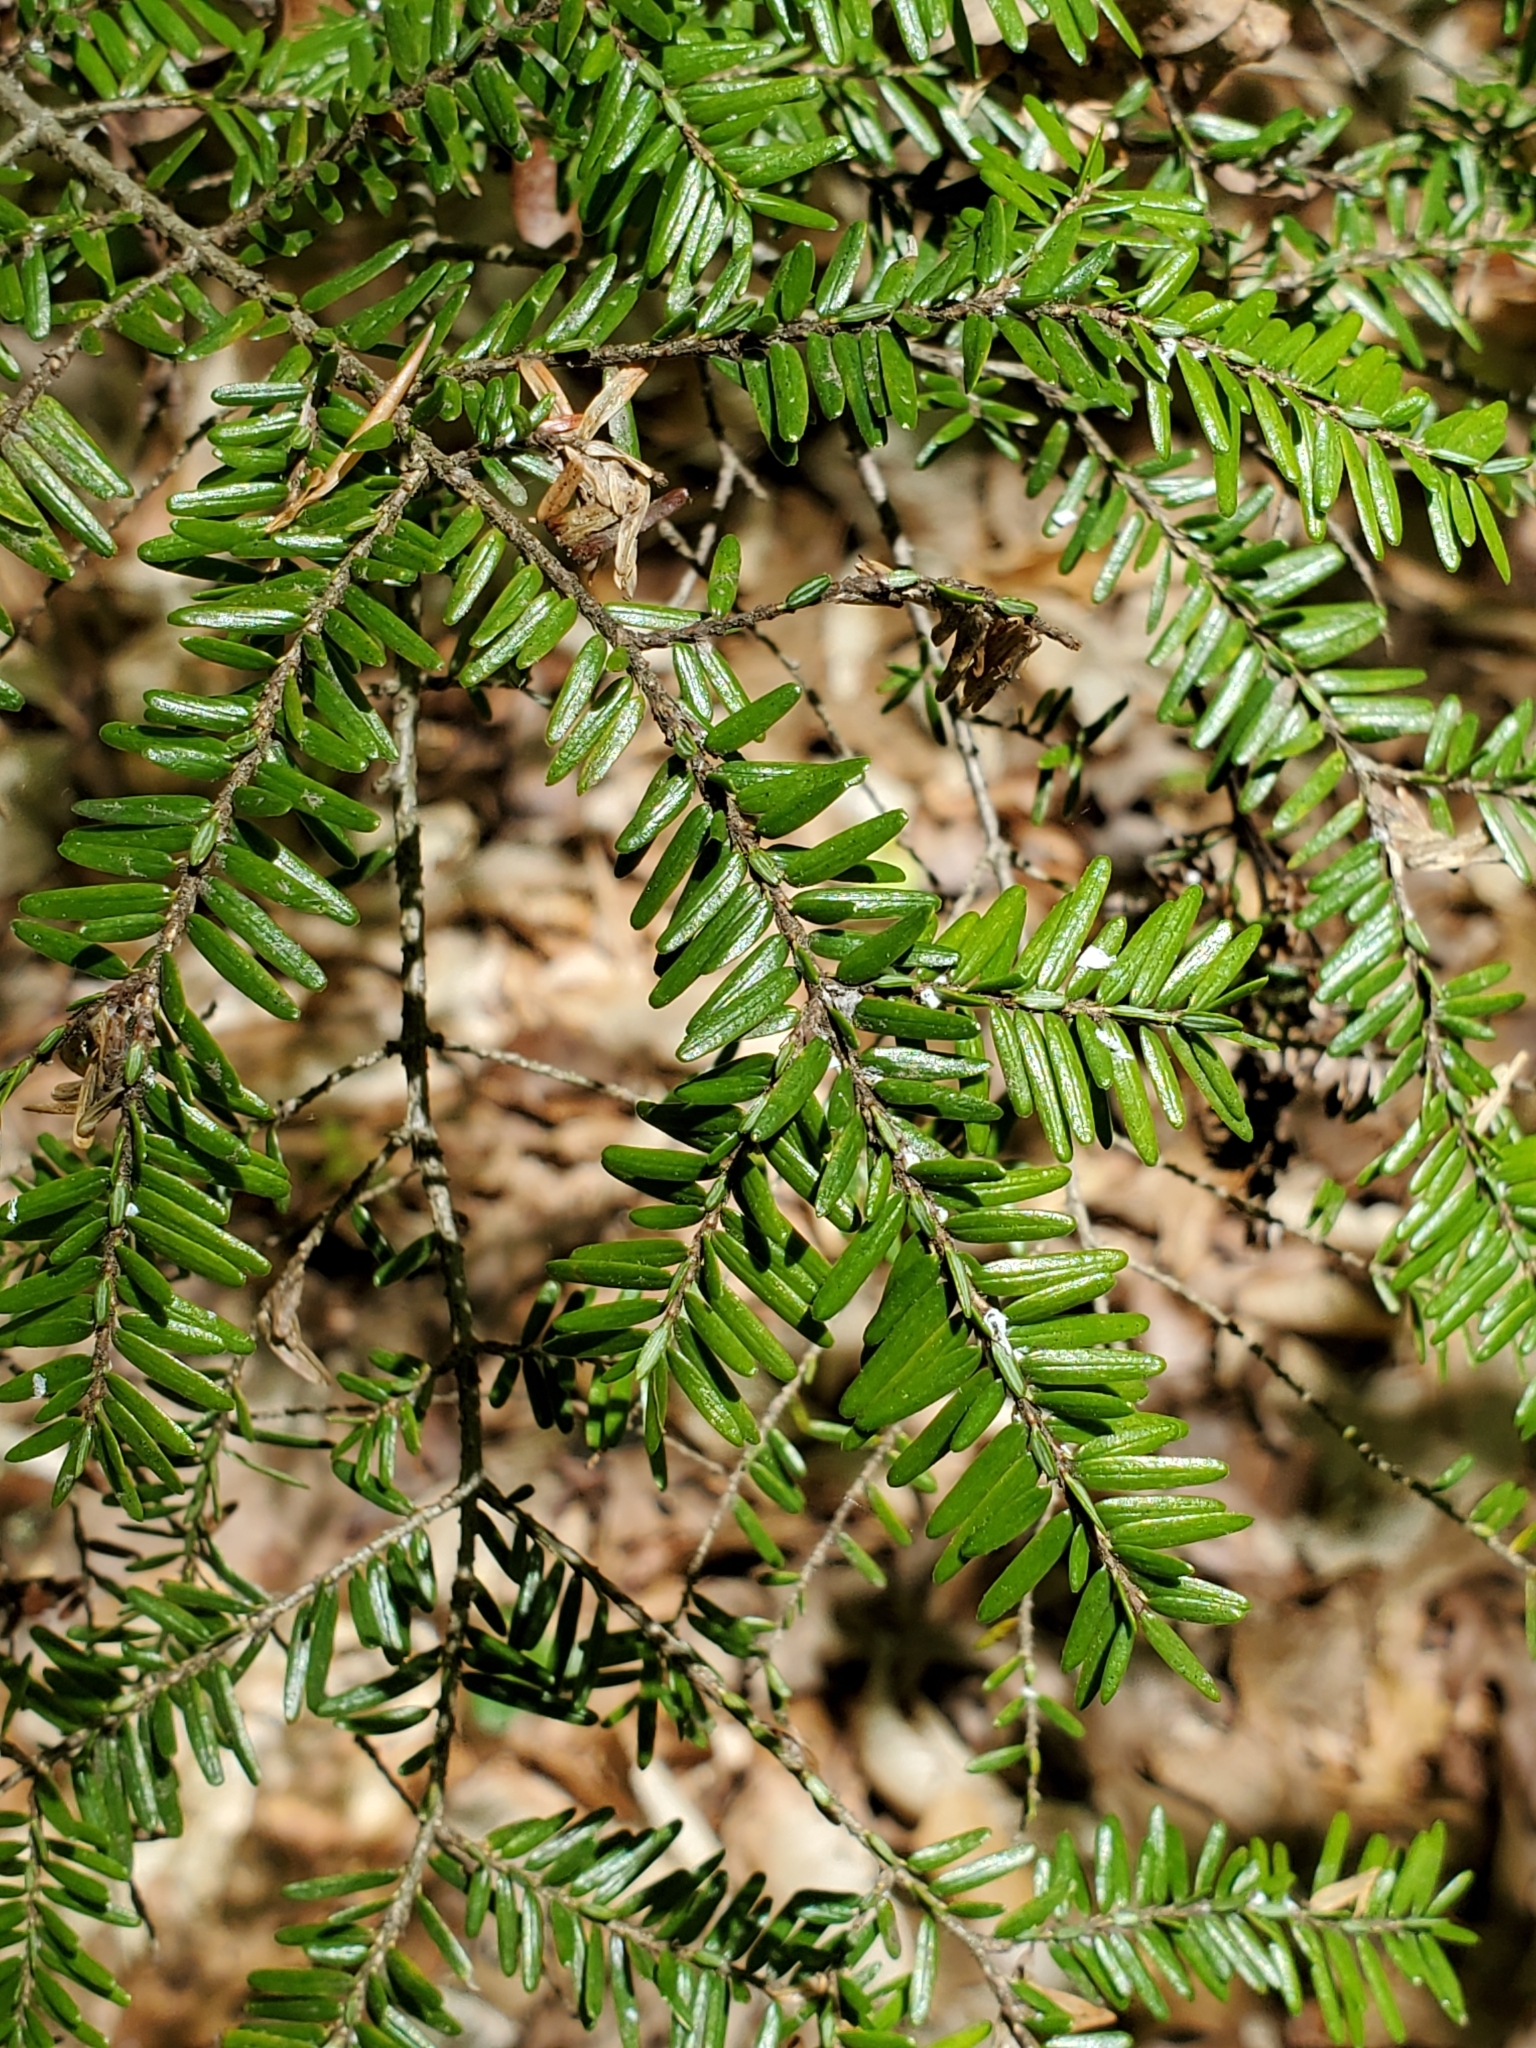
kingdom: Animalia
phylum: Arthropoda
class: Insecta
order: Hemiptera
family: Adelgidae
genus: Adelges
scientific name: Adelges tsugae
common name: Hemlock woolly adelgid
